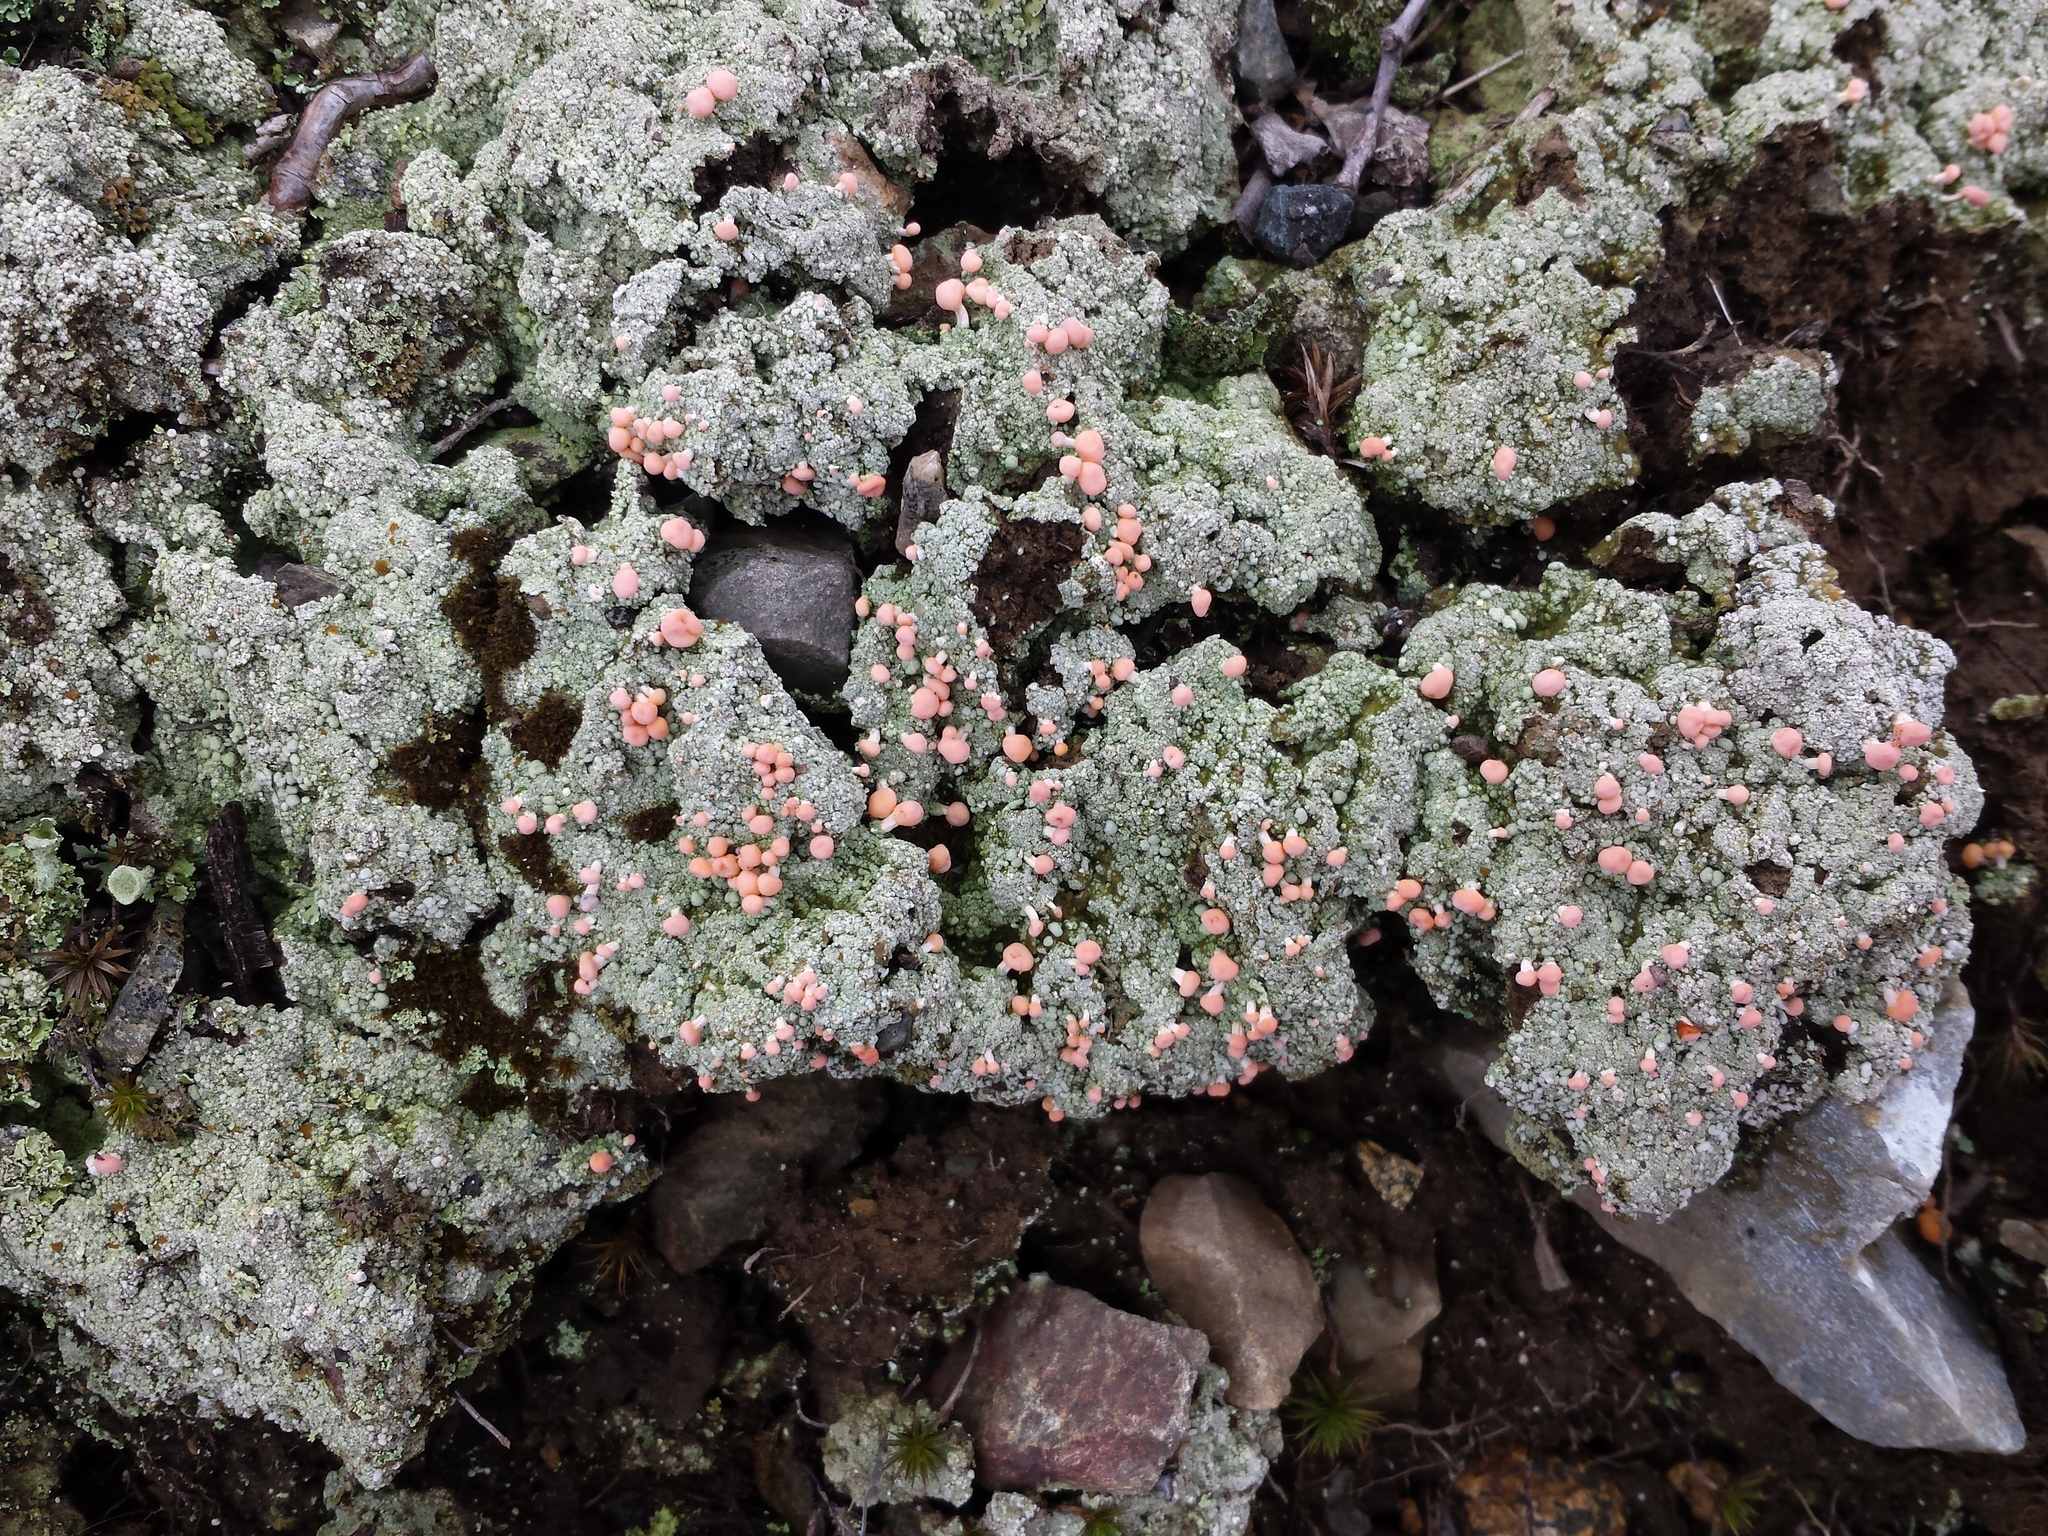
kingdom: Fungi
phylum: Ascomycota
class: Lecanoromycetes
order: Pertusariales
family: Icmadophilaceae
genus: Dibaeis
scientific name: Dibaeis baeomyces
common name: Pink earth lichen
